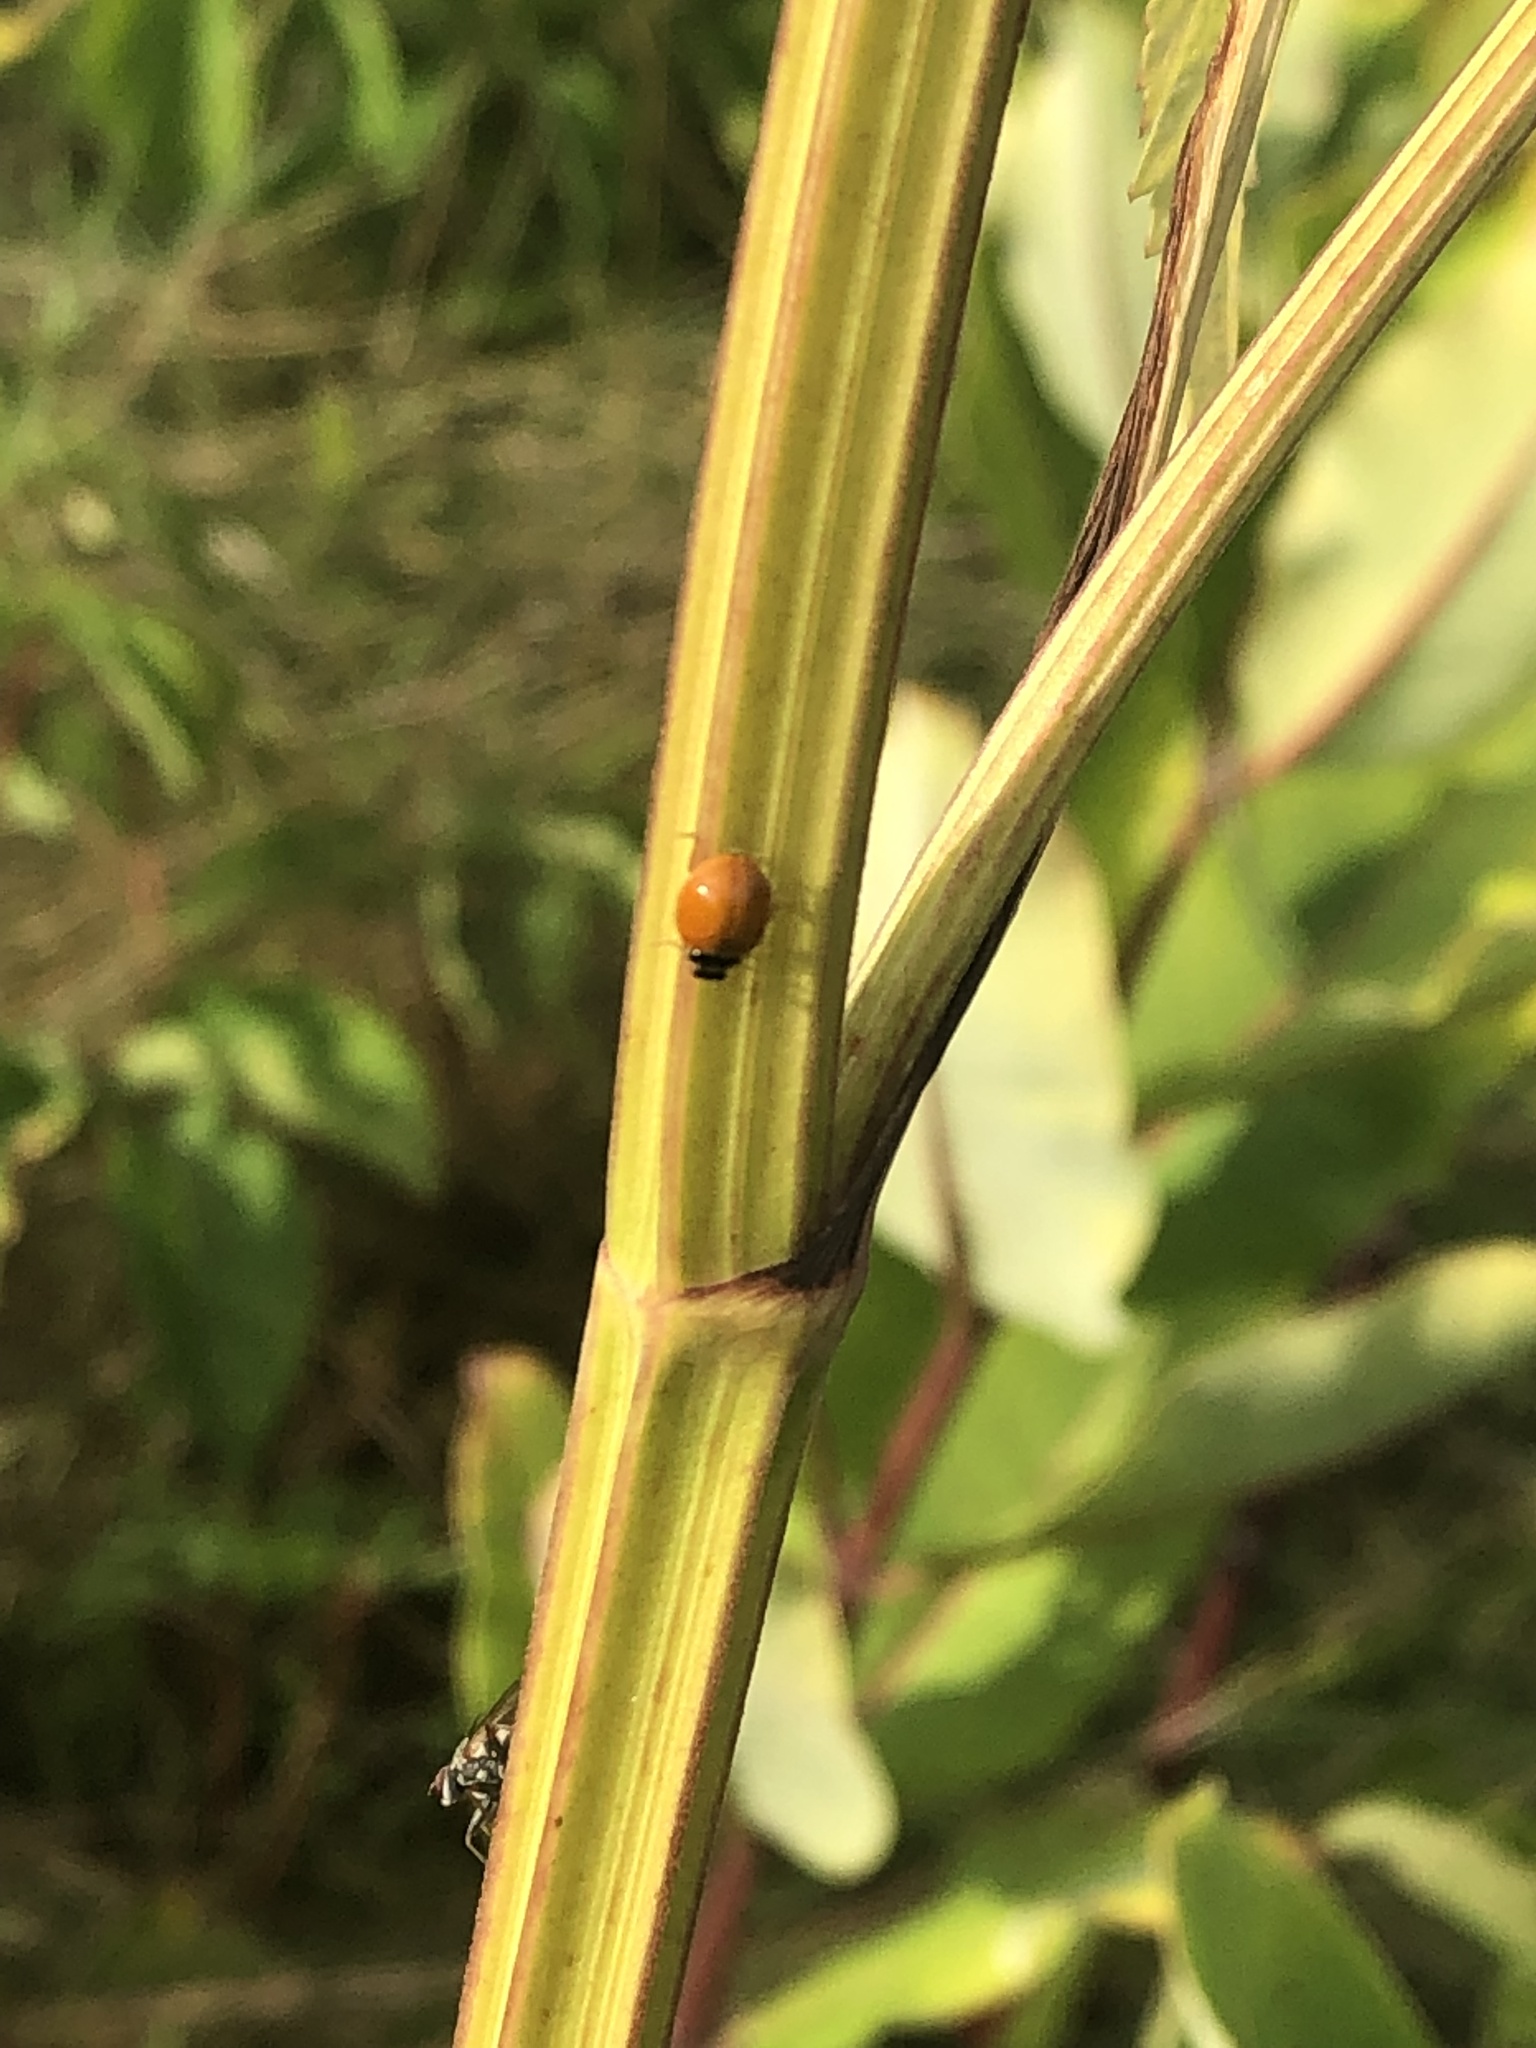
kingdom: Animalia
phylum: Arthropoda
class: Insecta
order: Coleoptera
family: Coccinellidae
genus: Cycloneda
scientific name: Cycloneda munda
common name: Polished lady beetle
